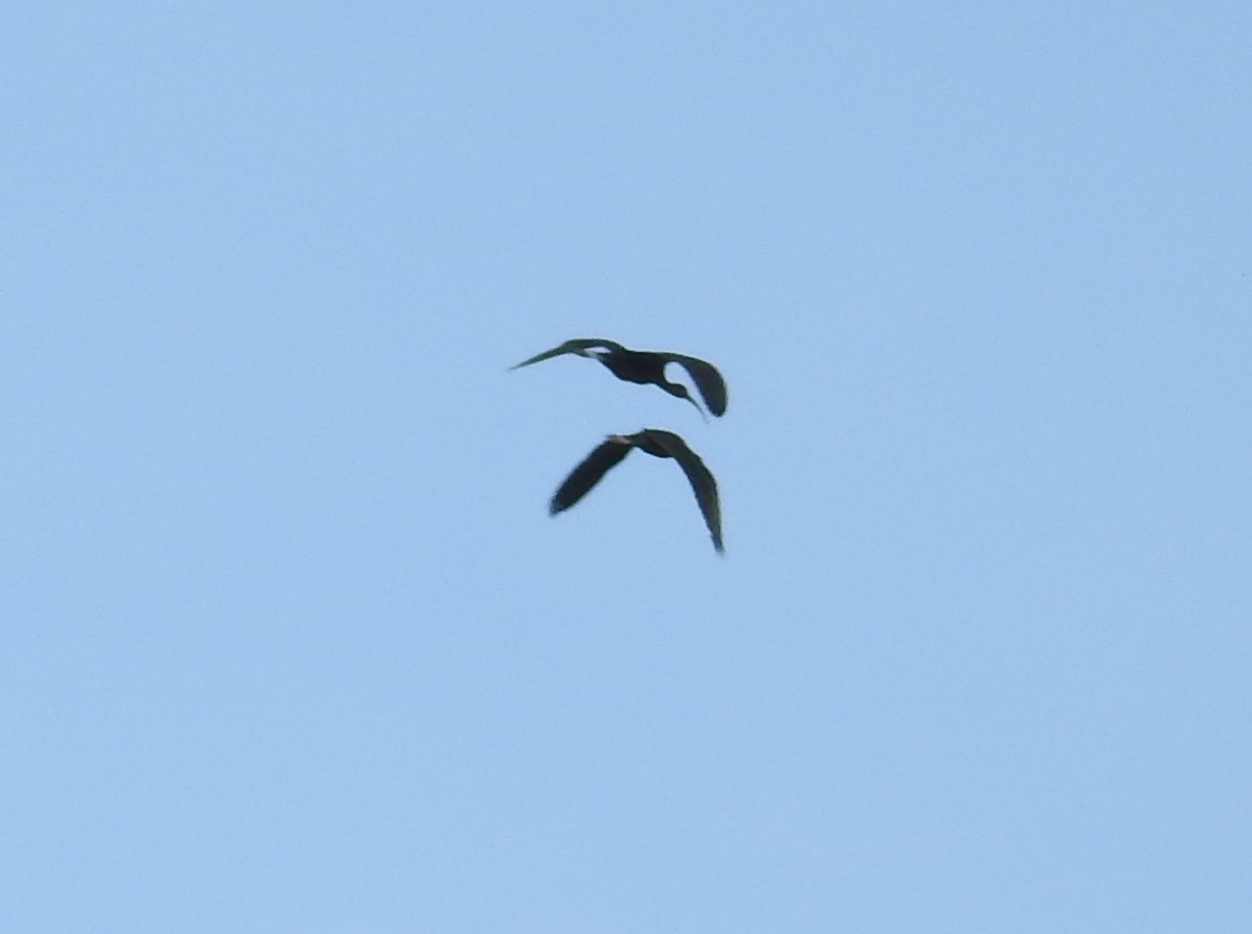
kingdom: Animalia
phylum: Chordata
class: Aves
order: Pelecaniformes
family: Threskiornithidae
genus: Plegadis
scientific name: Plegadis falcinellus
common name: Glossy ibis
